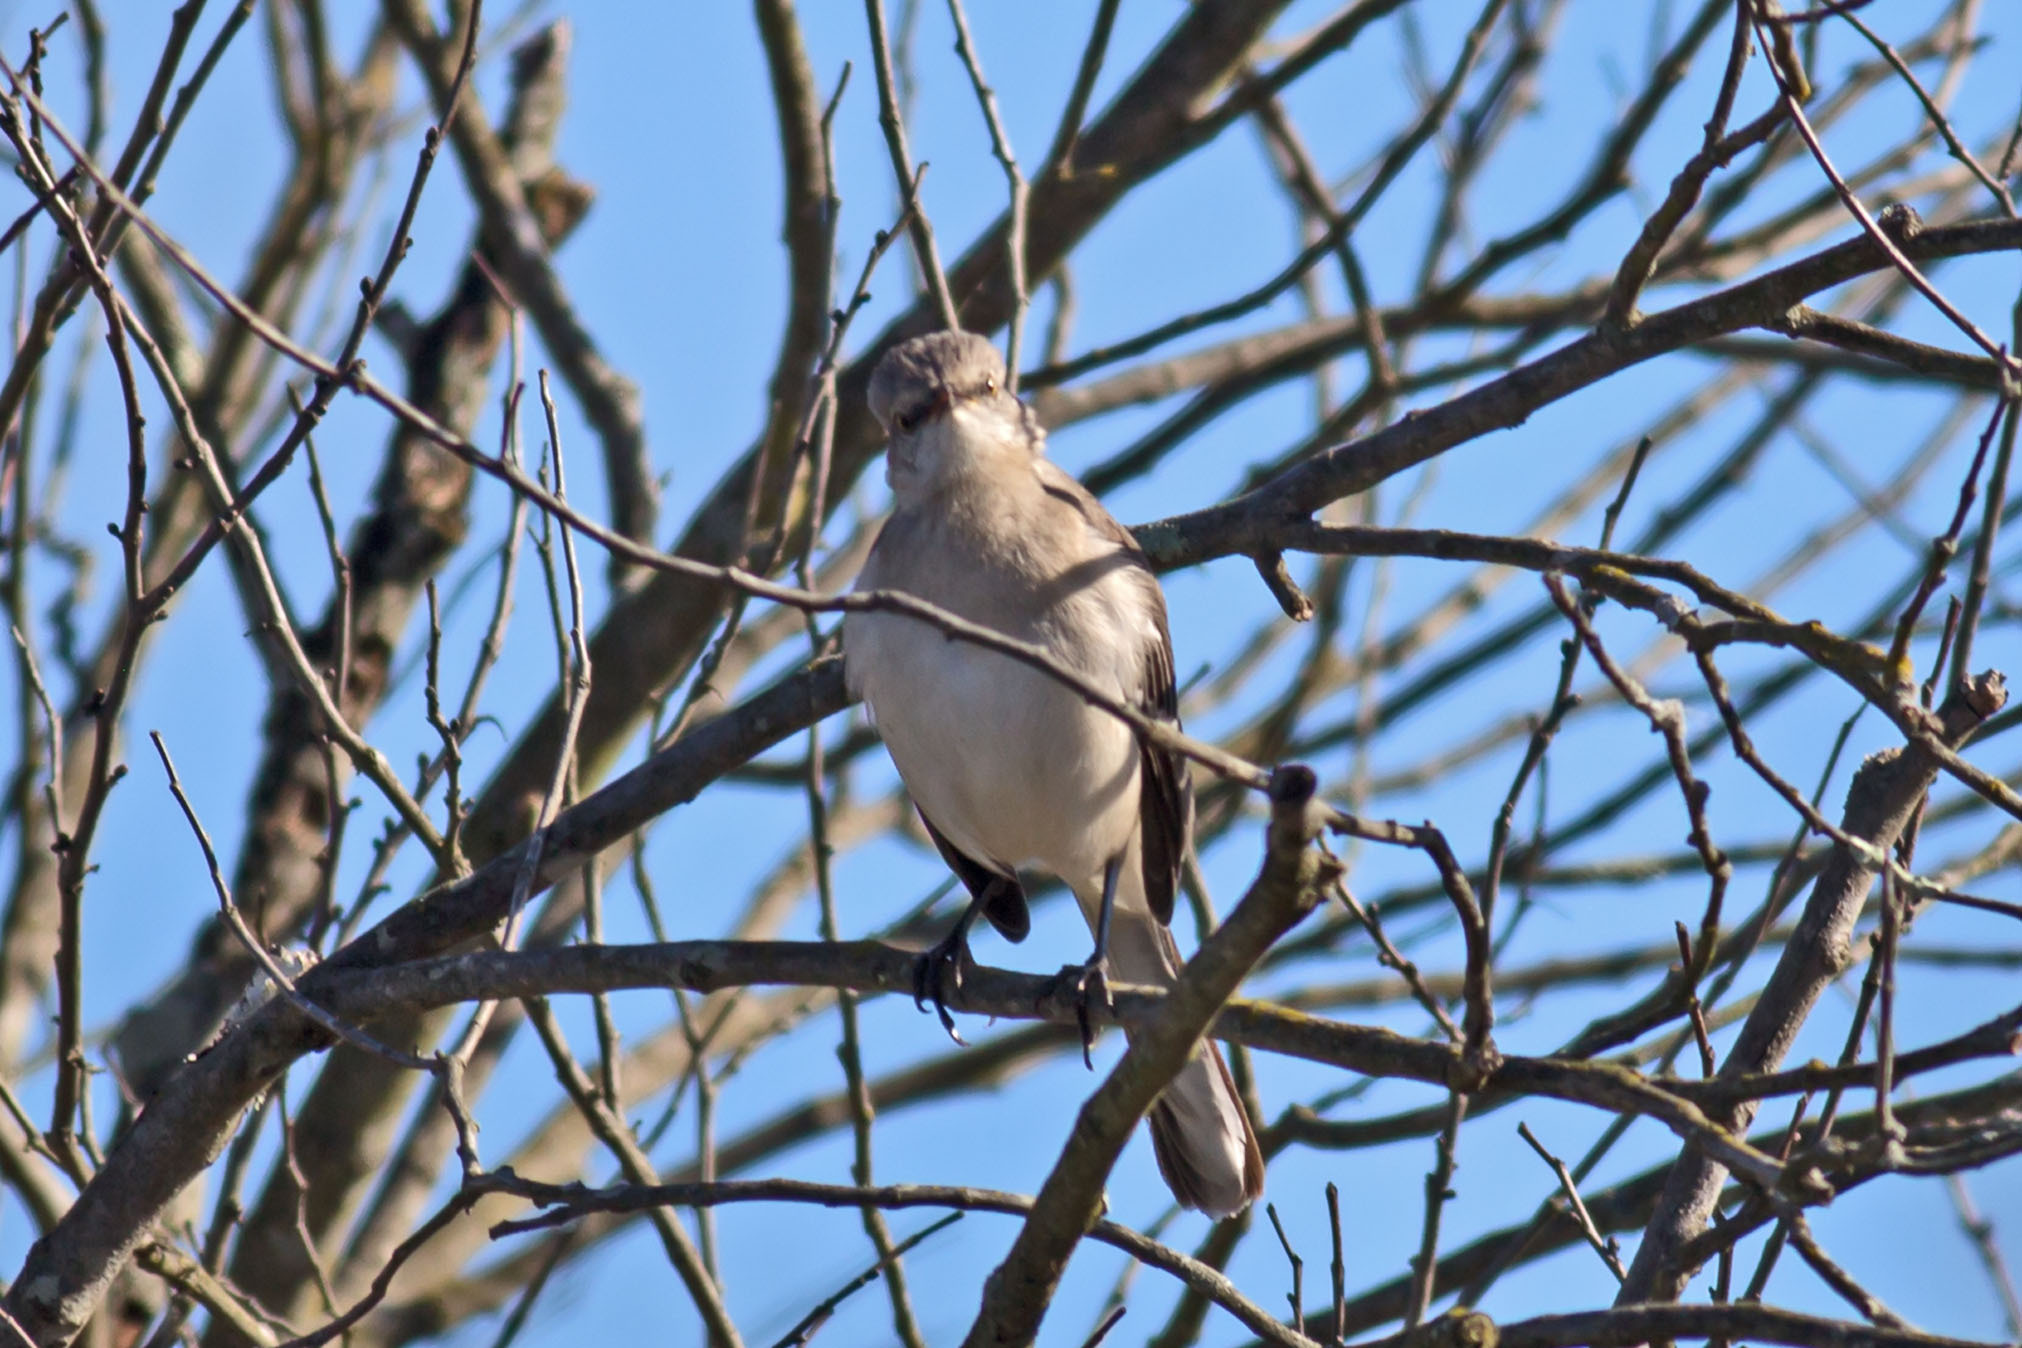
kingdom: Animalia
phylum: Chordata
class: Aves
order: Passeriformes
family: Mimidae
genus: Mimus
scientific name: Mimus polyglottos
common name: Northern mockingbird
